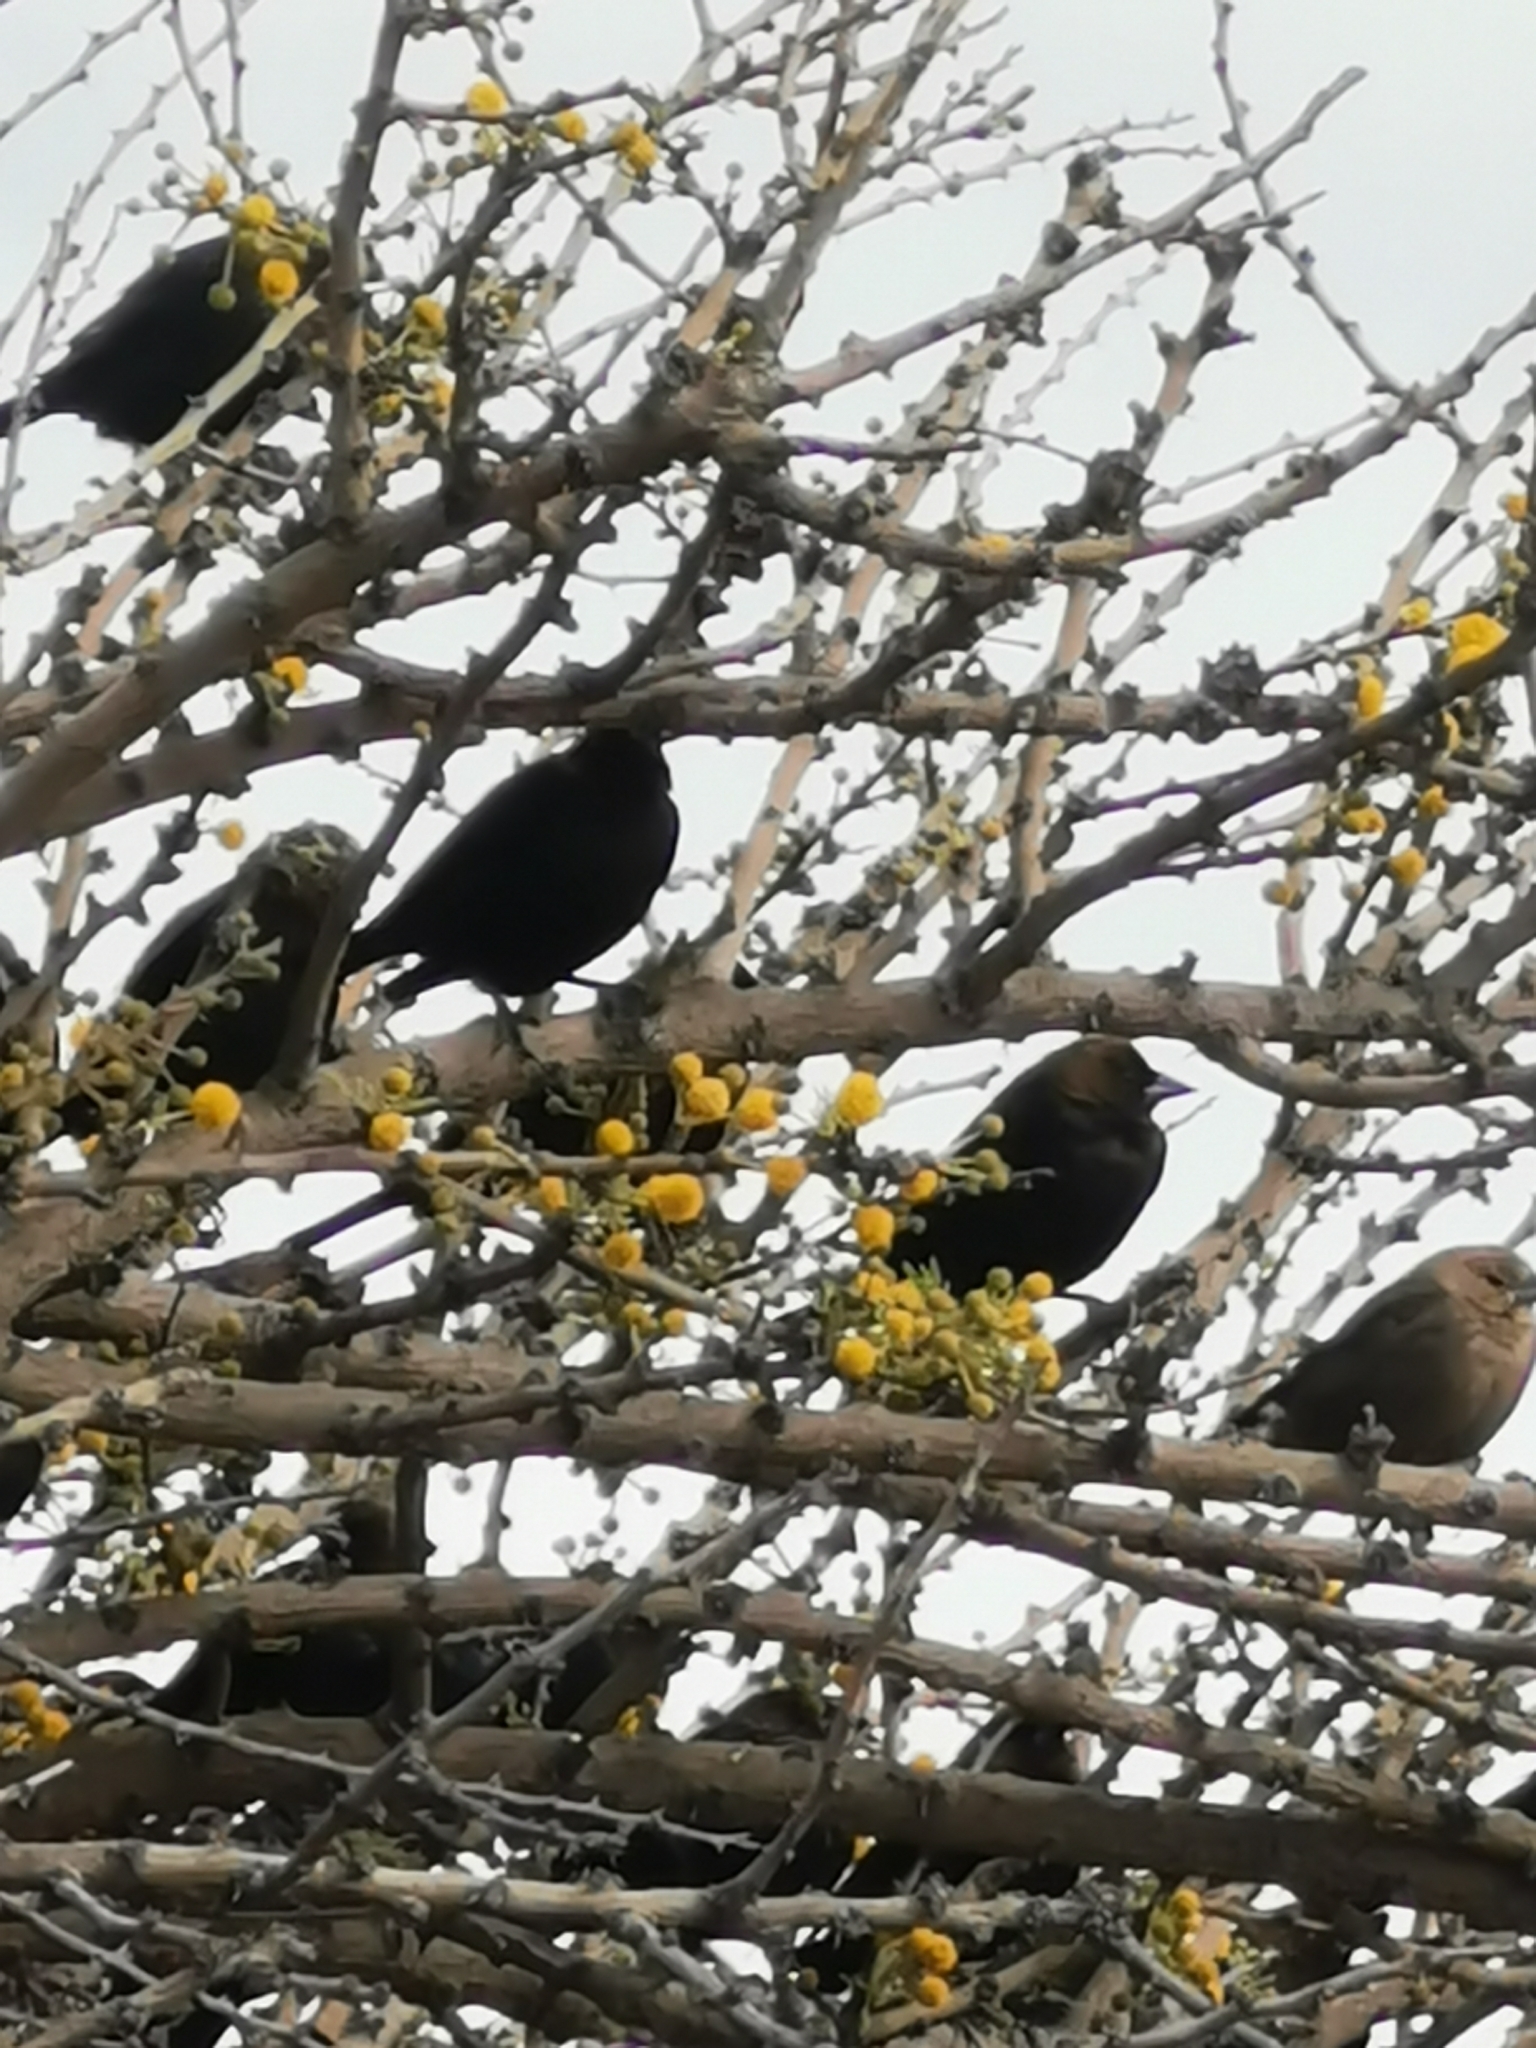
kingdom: Animalia
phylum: Chordata
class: Aves
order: Passeriformes
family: Icteridae
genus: Molothrus
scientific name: Molothrus ater
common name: Brown-headed cowbird
